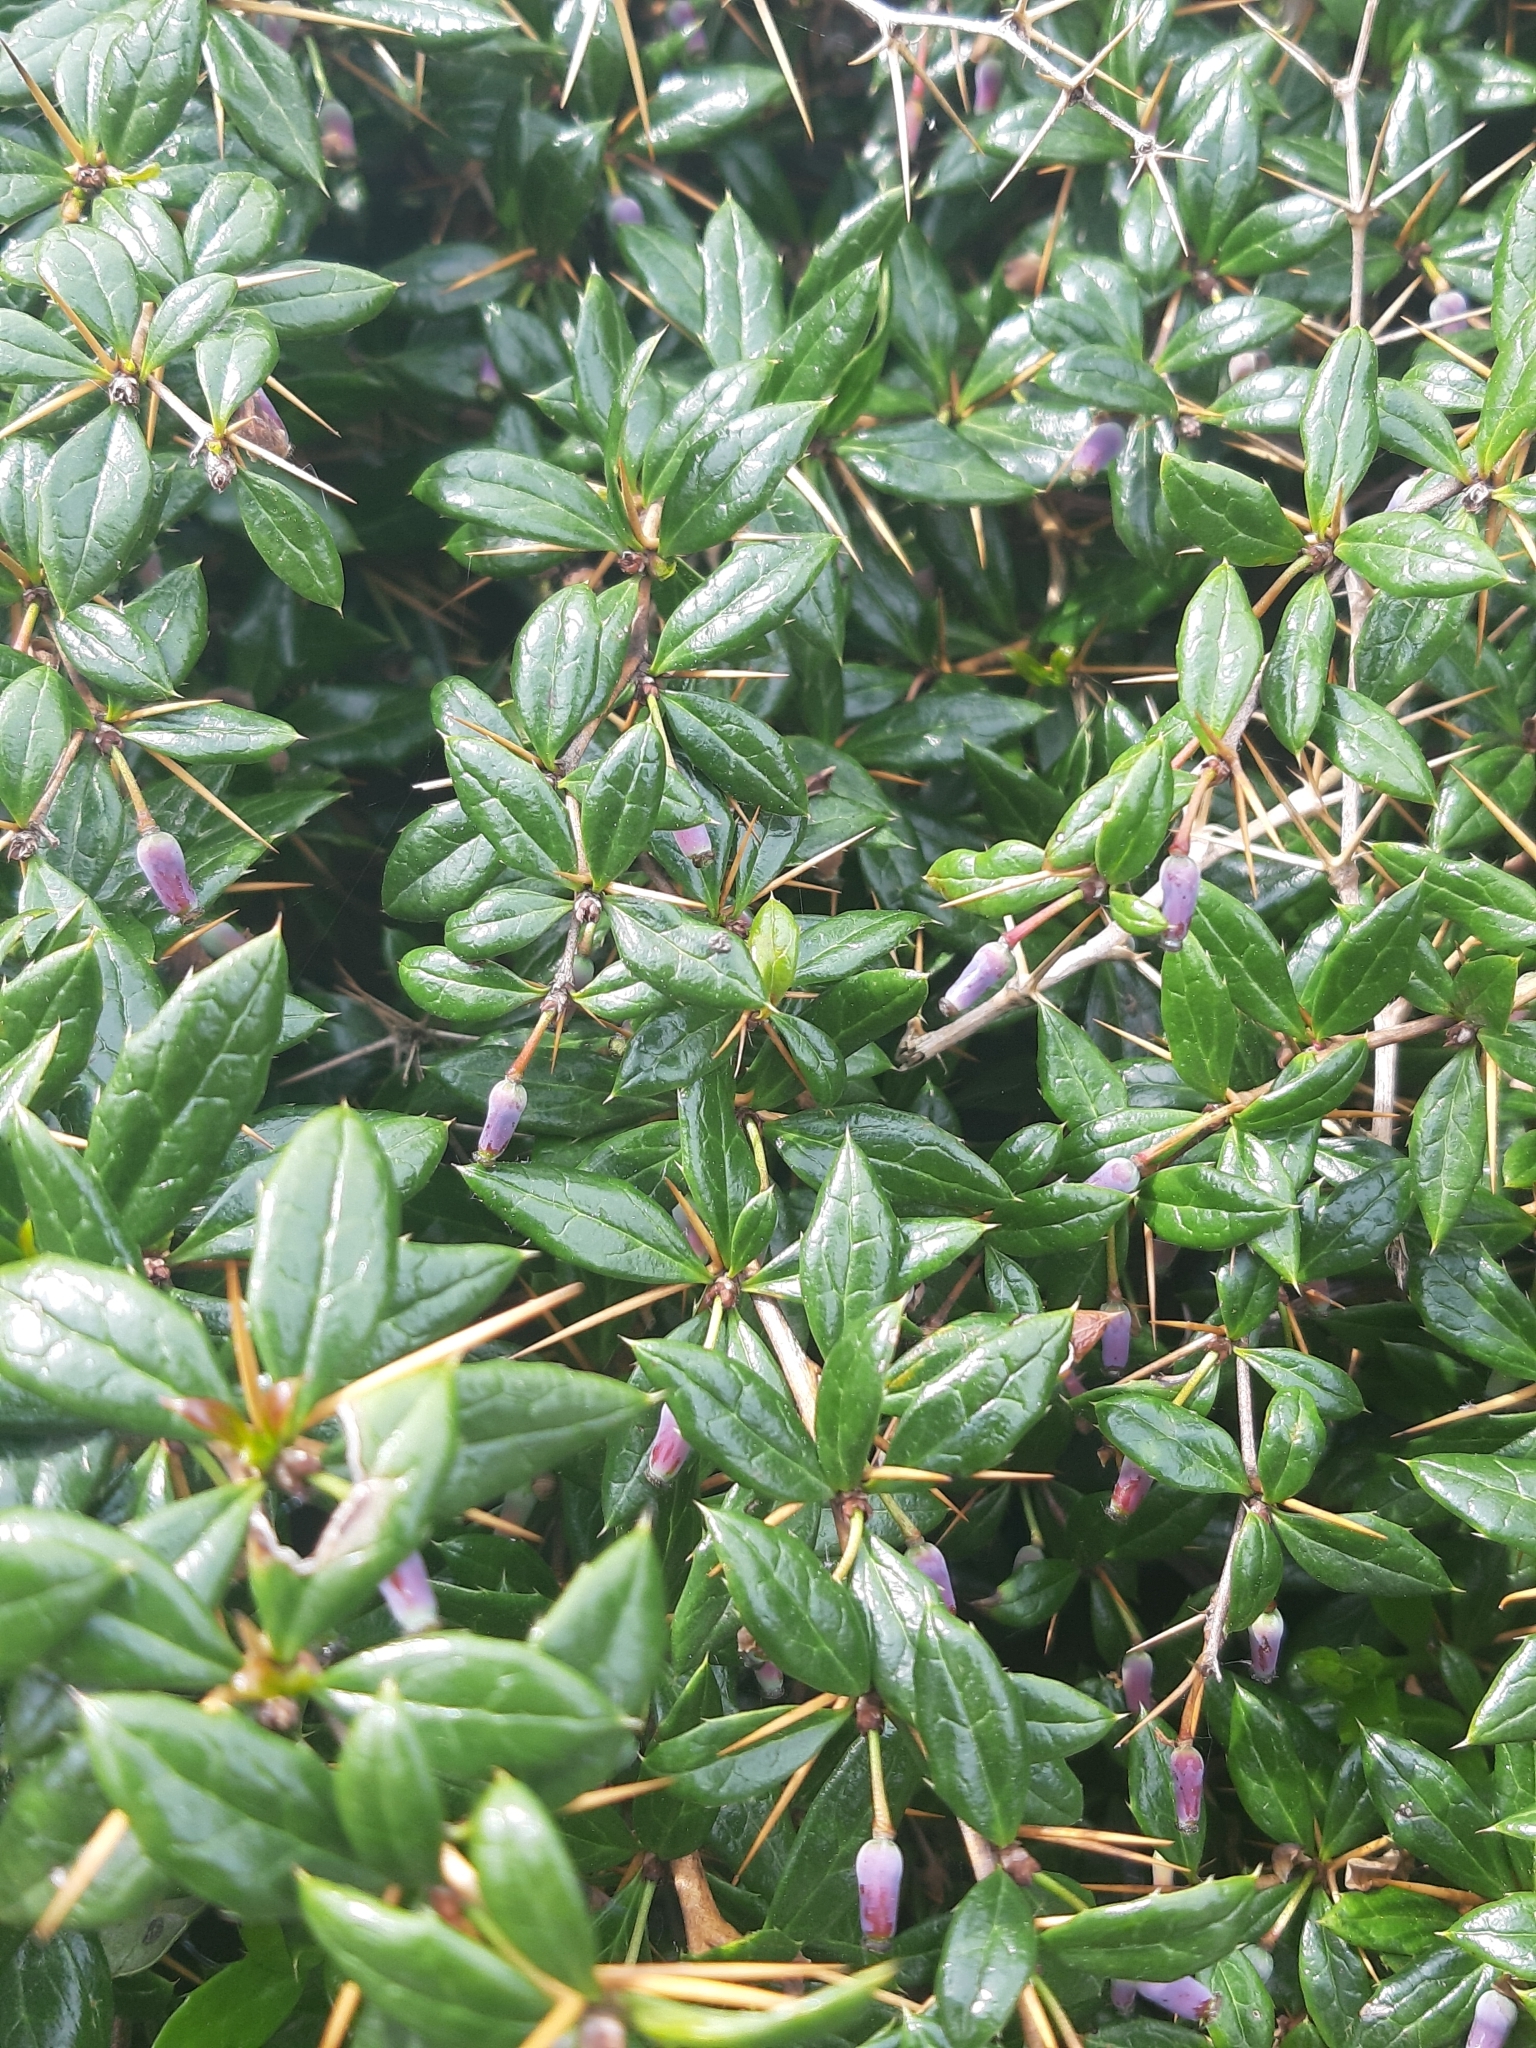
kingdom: Plantae
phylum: Tracheophyta
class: Magnoliopsida
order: Ranunculales
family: Berberidaceae
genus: Berberis
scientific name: Berberis julianae
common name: Wintergreen barberry
